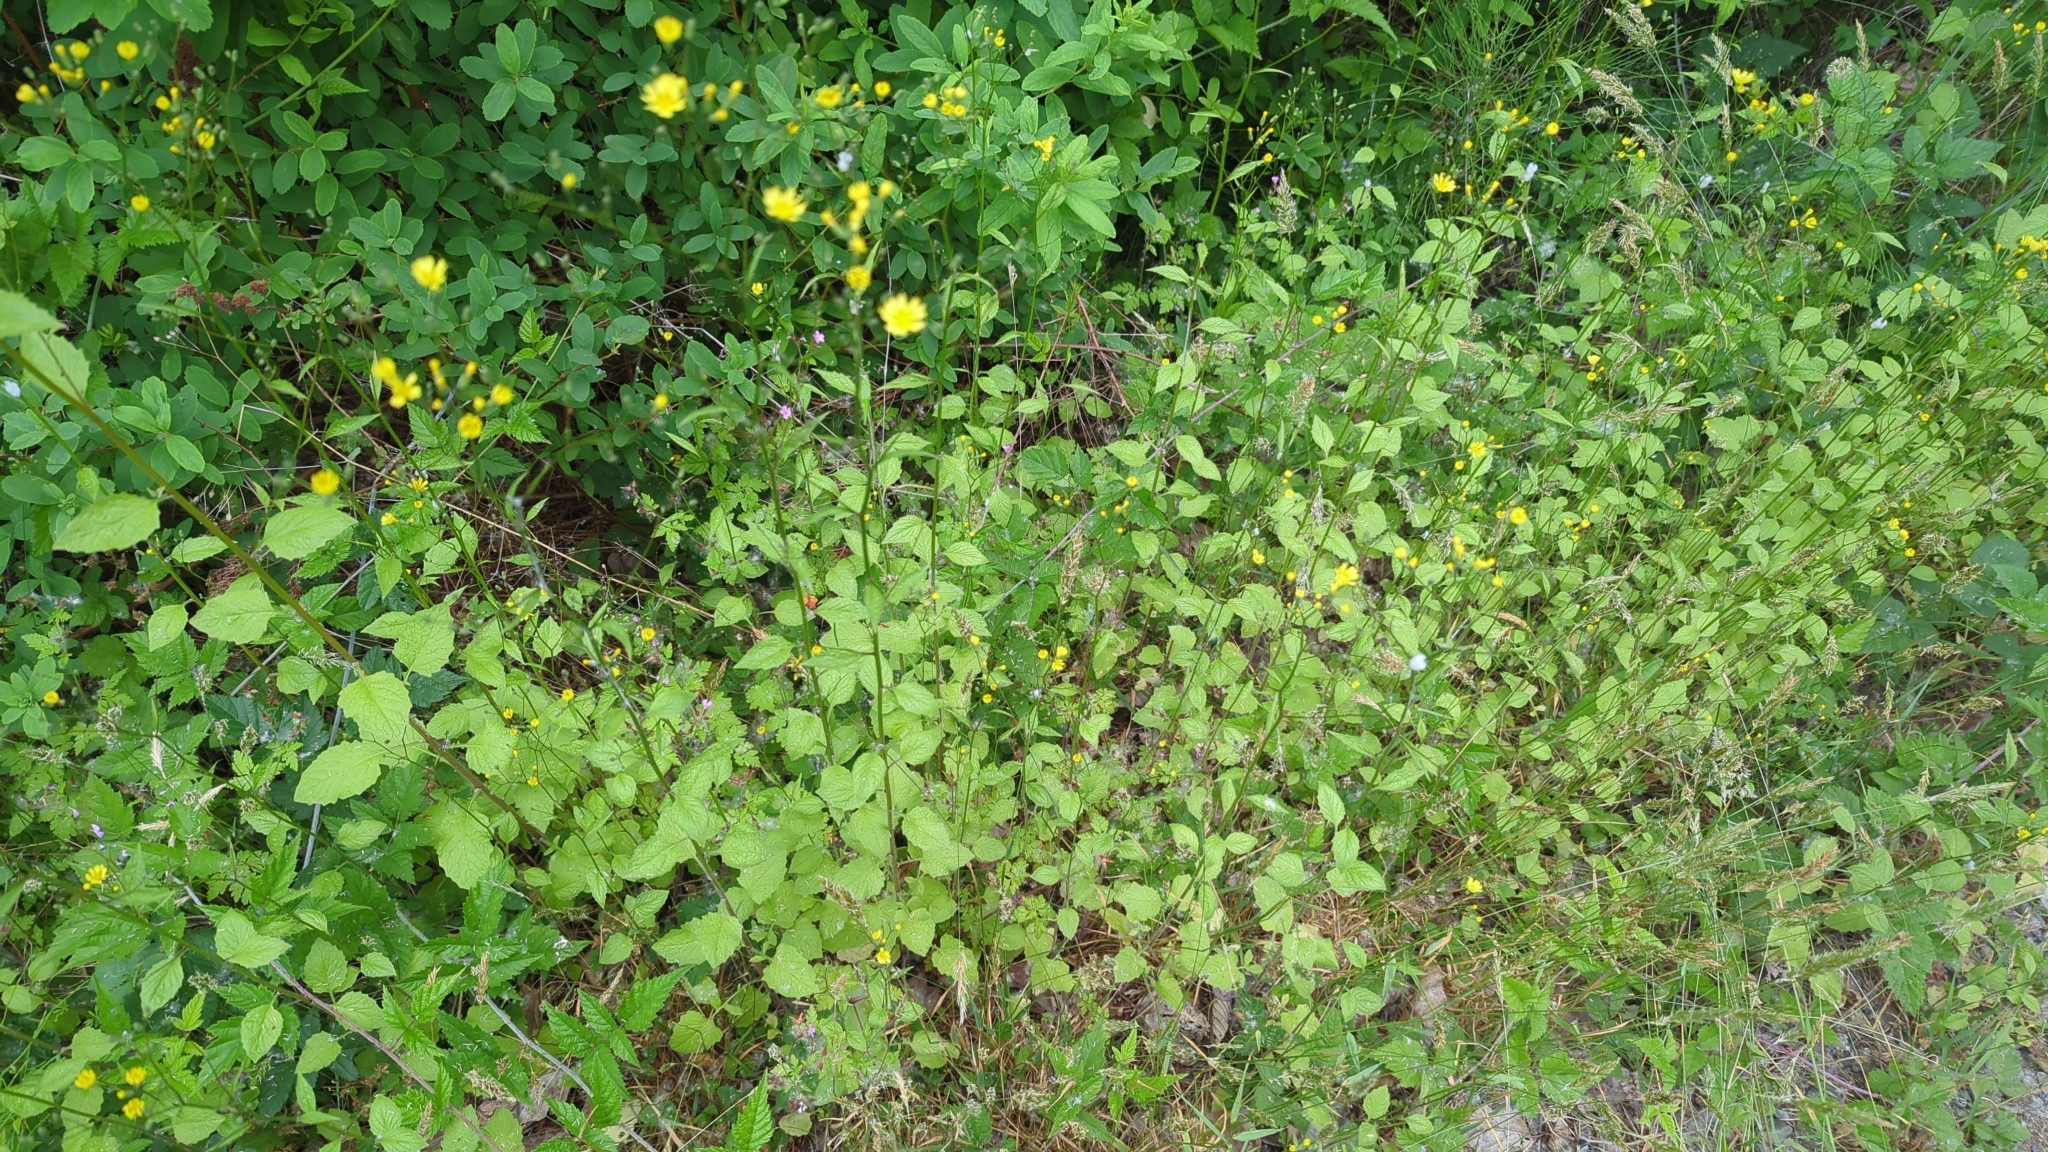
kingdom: Plantae
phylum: Tracheophyta
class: Magnoliopsida
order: Asterales
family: Asteraceae
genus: Lapsana
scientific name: Lapsana communis
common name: Nipplewort
